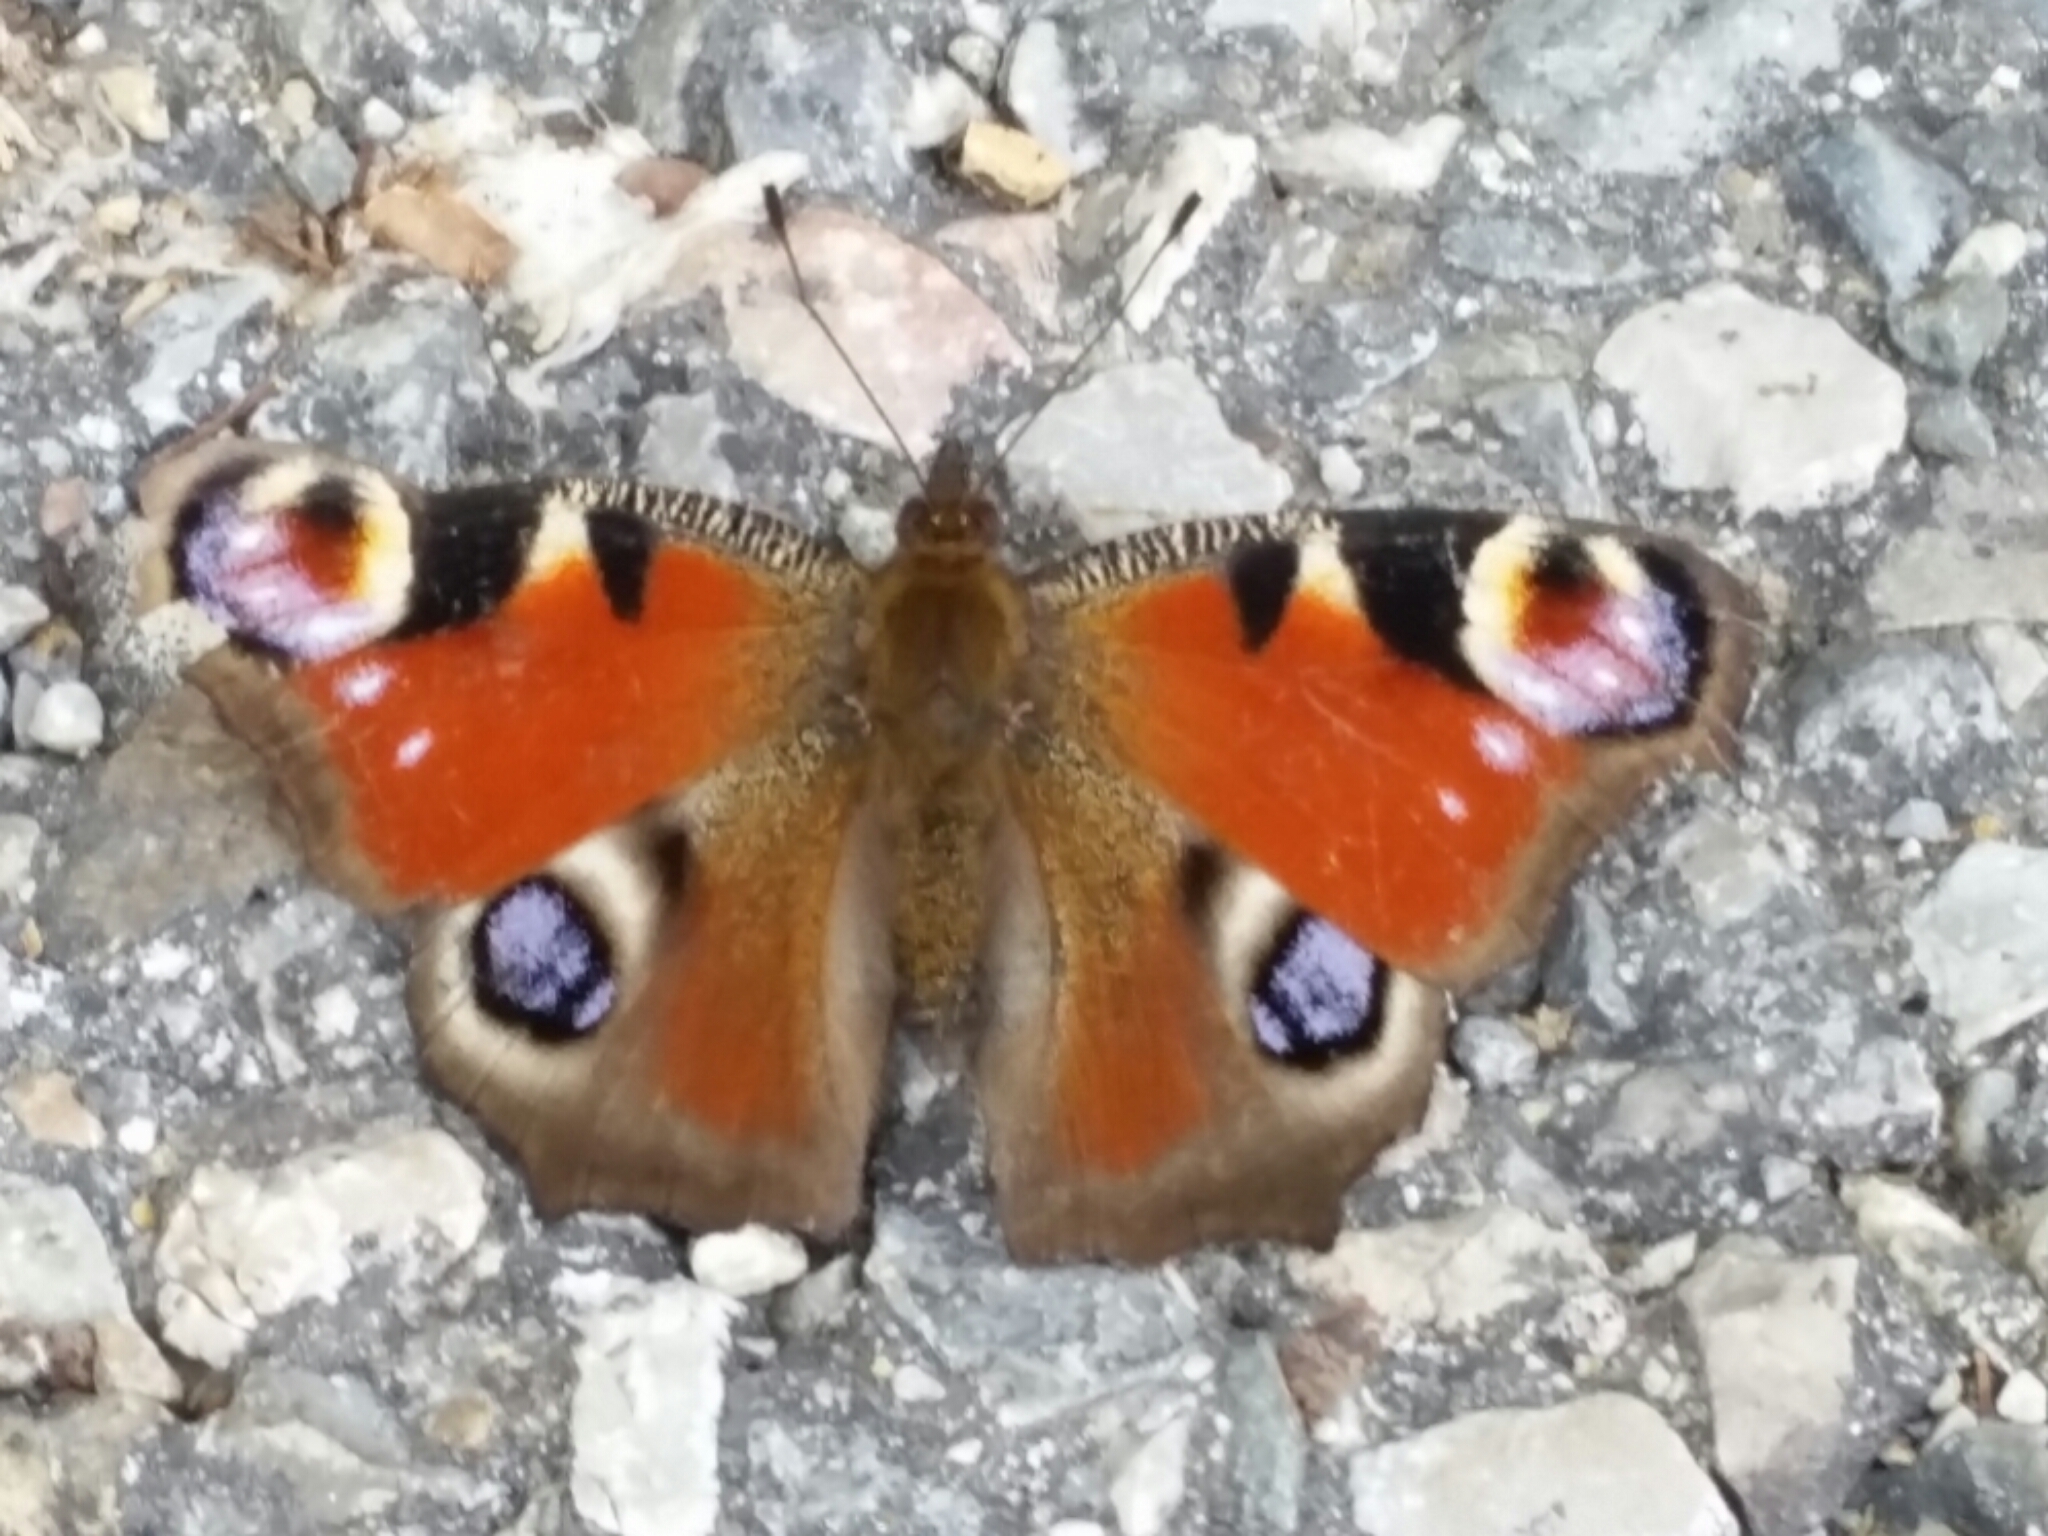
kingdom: Animalia
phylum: Arthropoda
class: Insecta
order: Lepidoptera
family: Nymphalidae
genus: Aglais
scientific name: Aglais io
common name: Peacock
